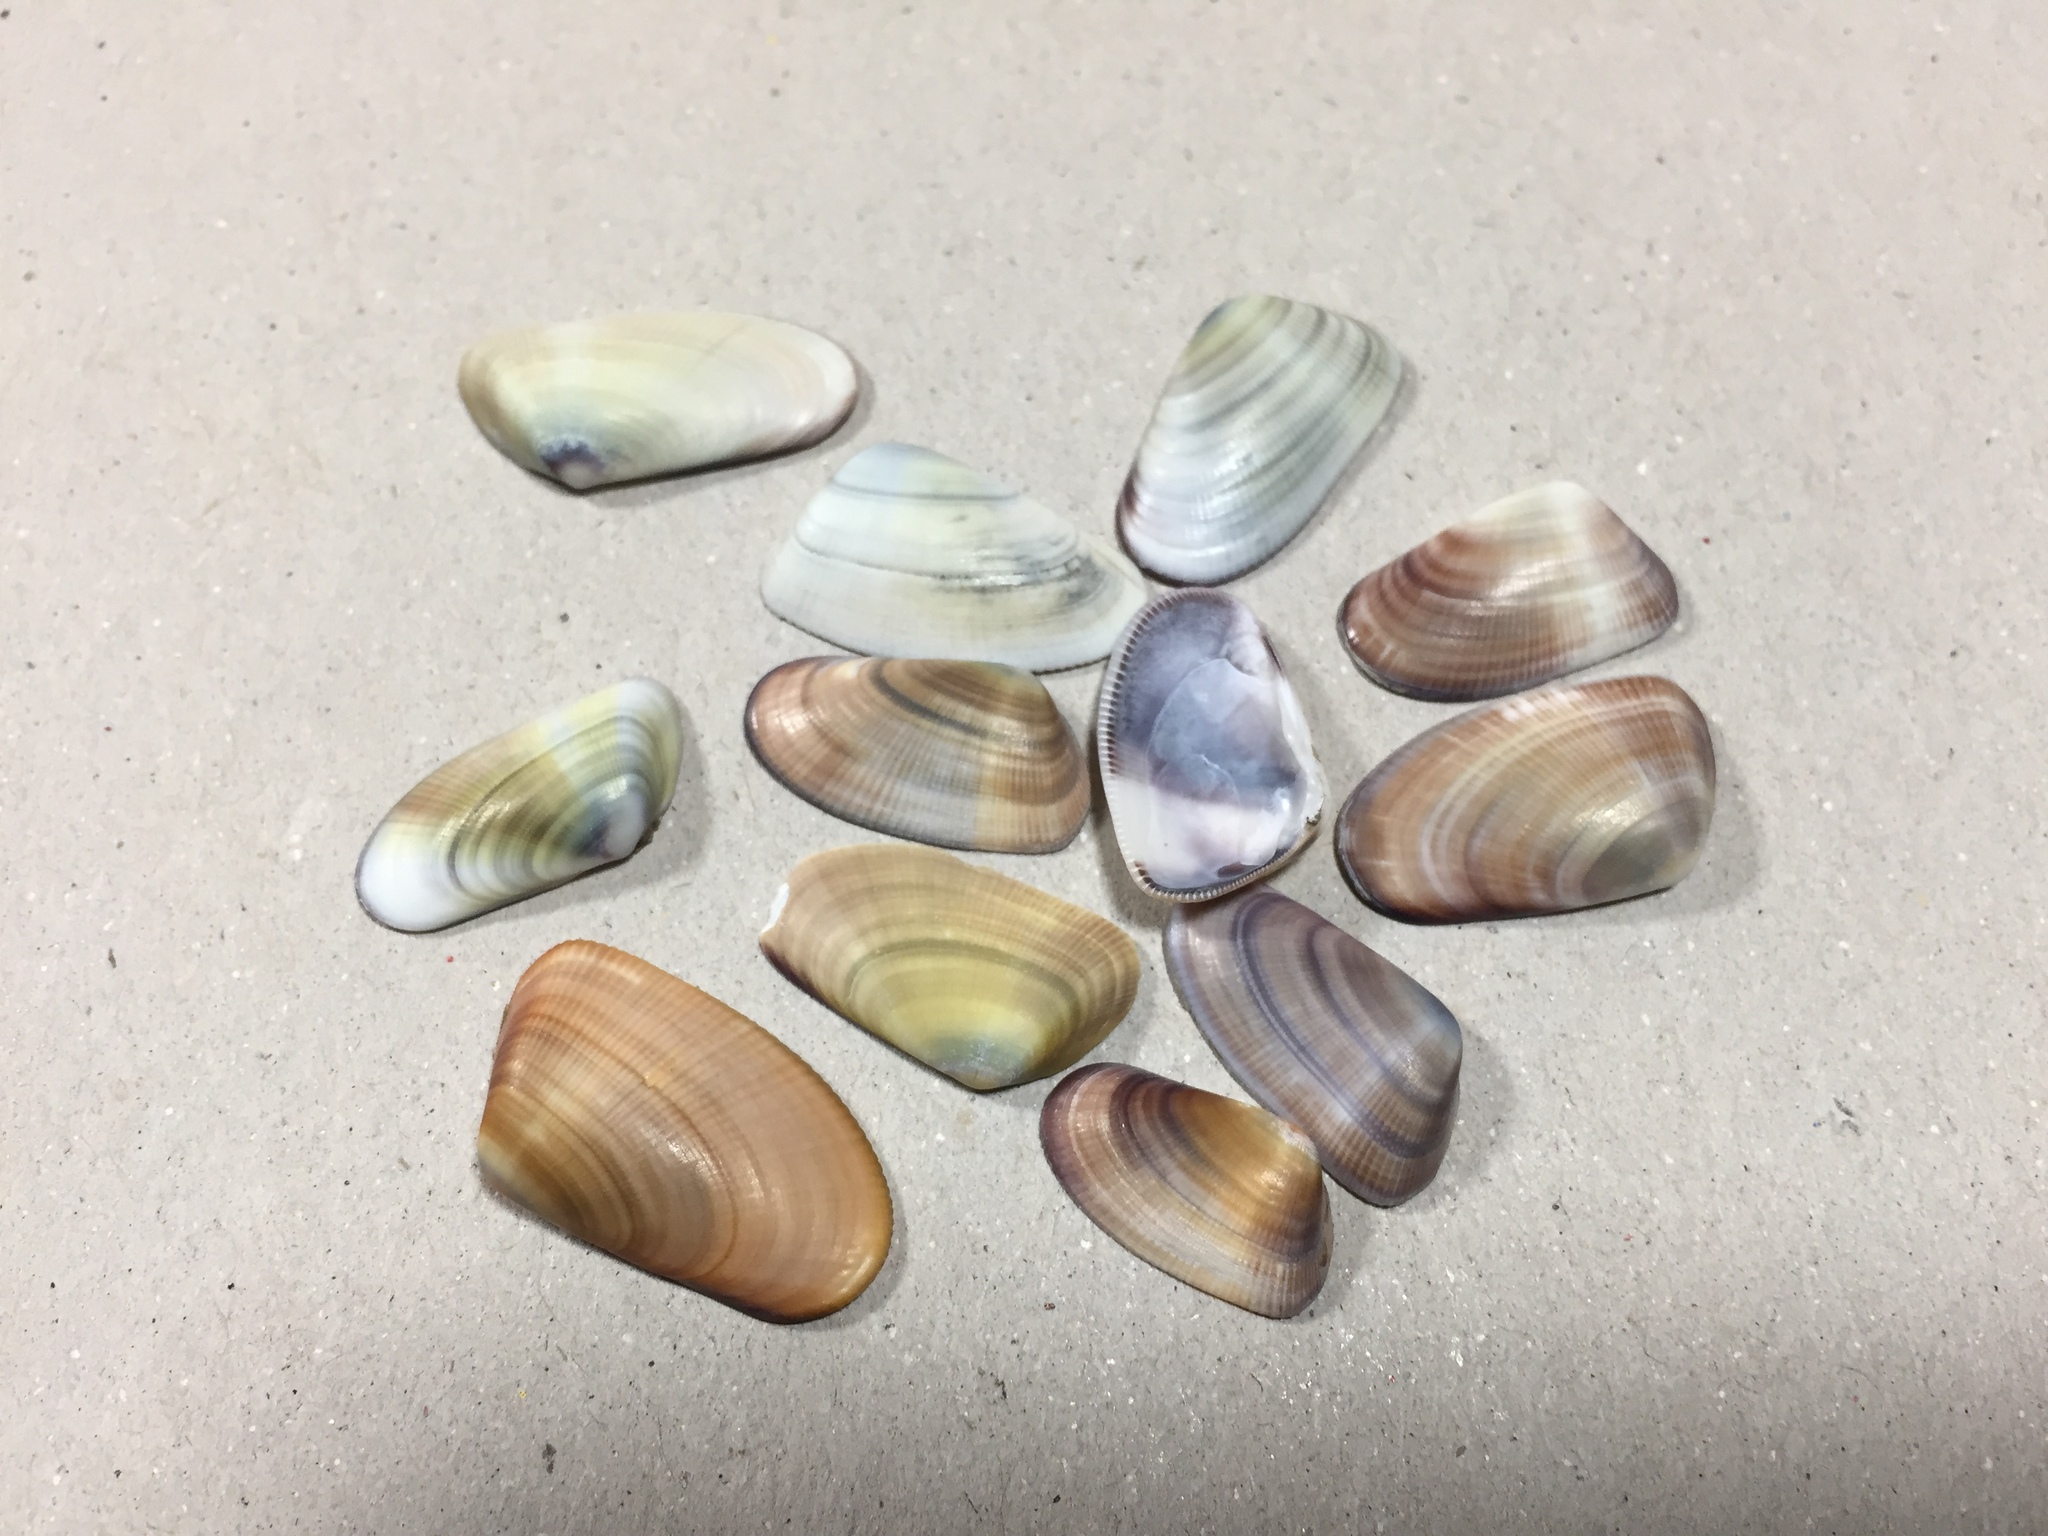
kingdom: Animalia
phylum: Mollusca
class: Bivalvia
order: Cardiida
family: Donacidae
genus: Donax
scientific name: Donax gouldii
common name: Gould beanclam
